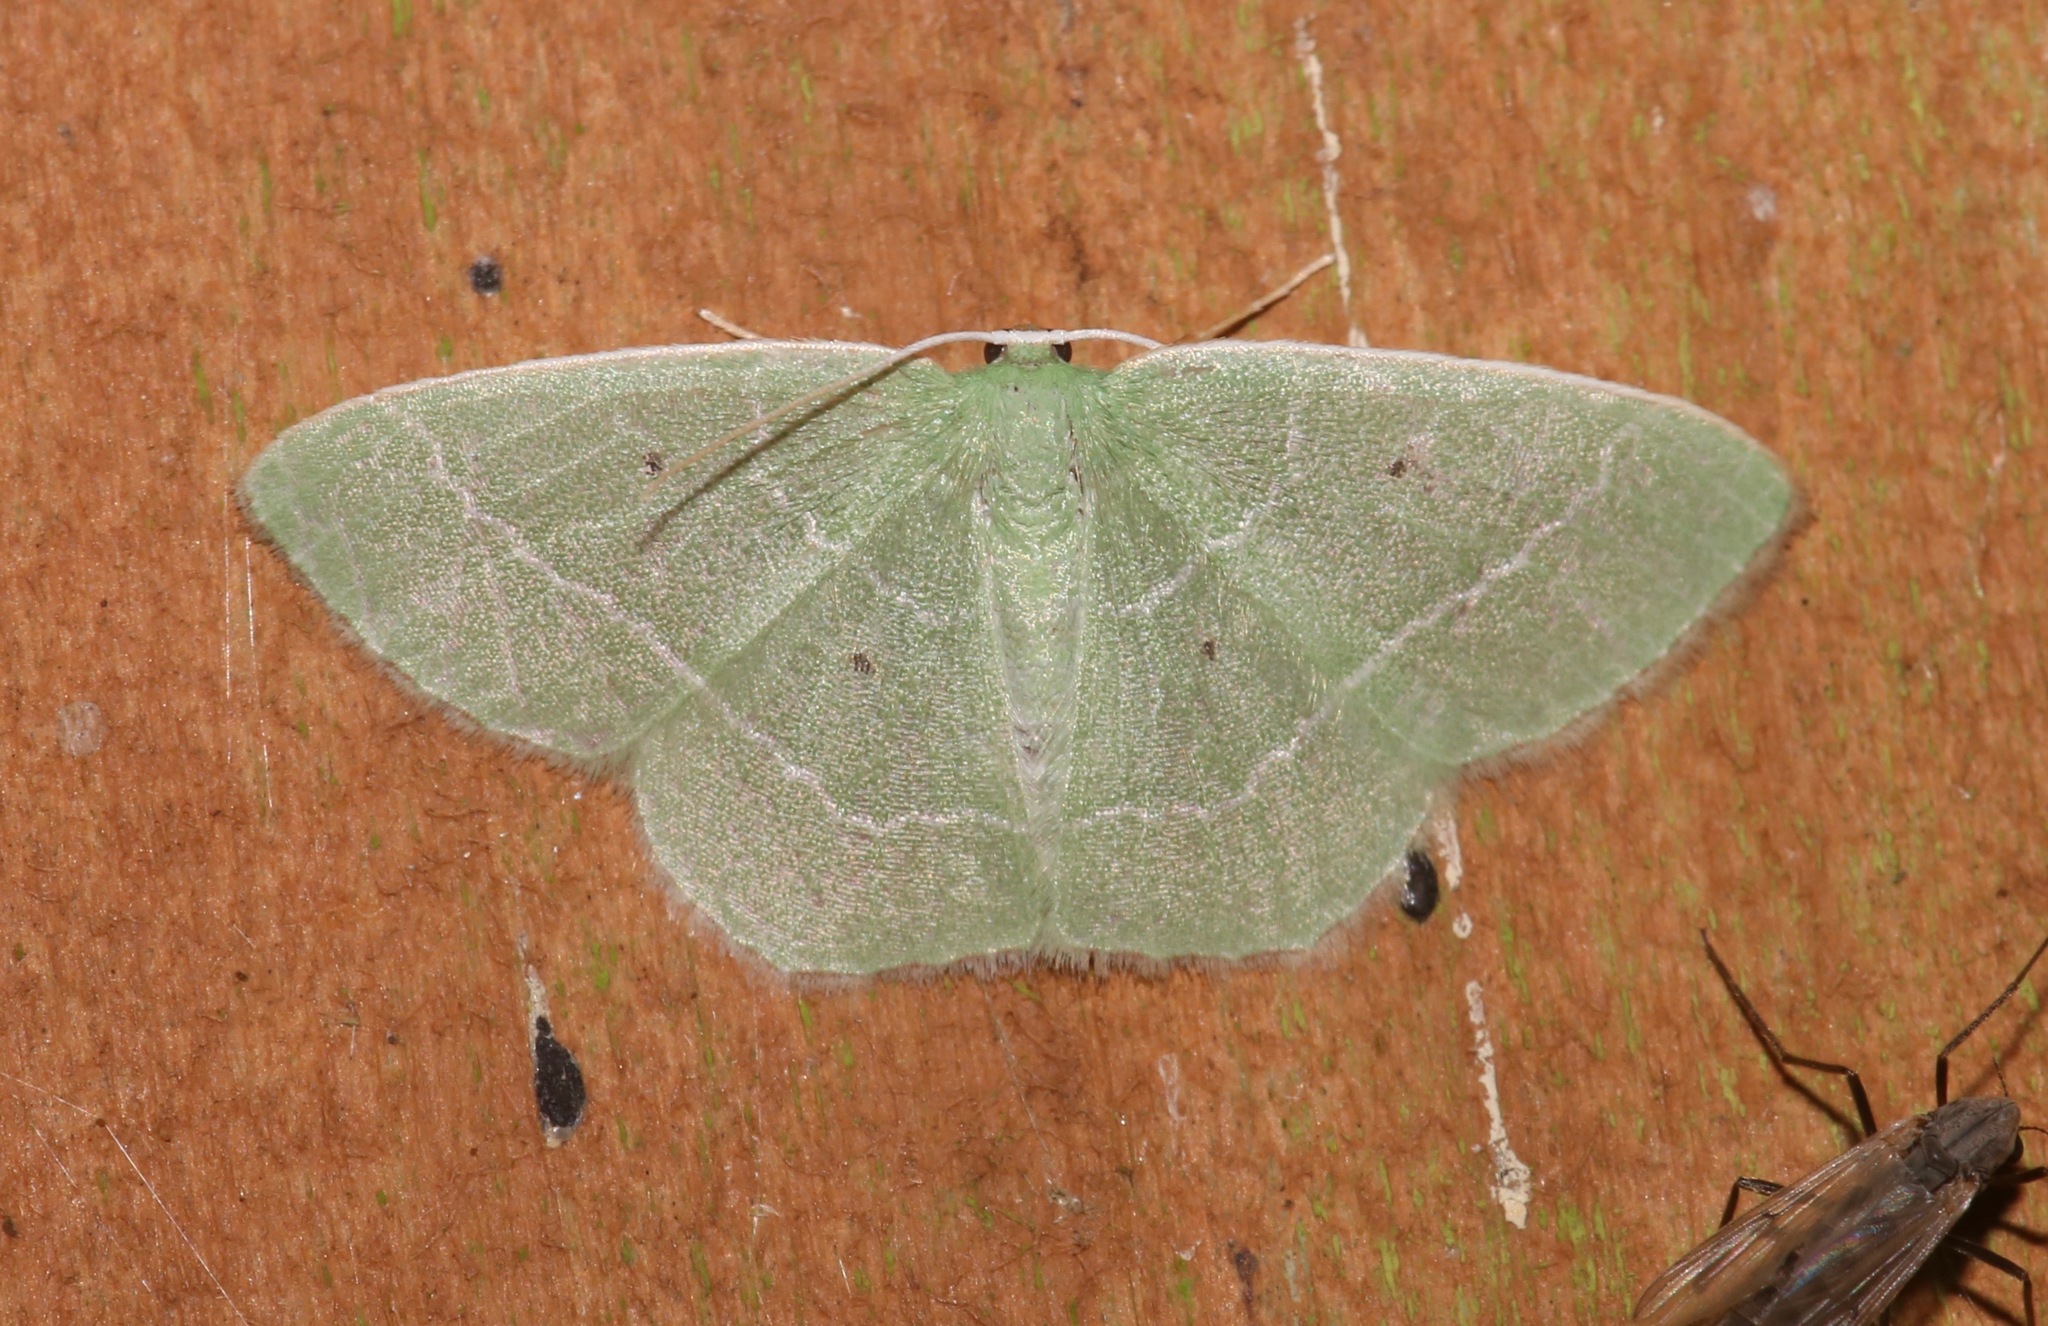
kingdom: Animalia
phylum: Arthropoda
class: Insecta
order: Lepidoptera
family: Geometridae
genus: Nemoria
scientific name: Nemoria elfa
